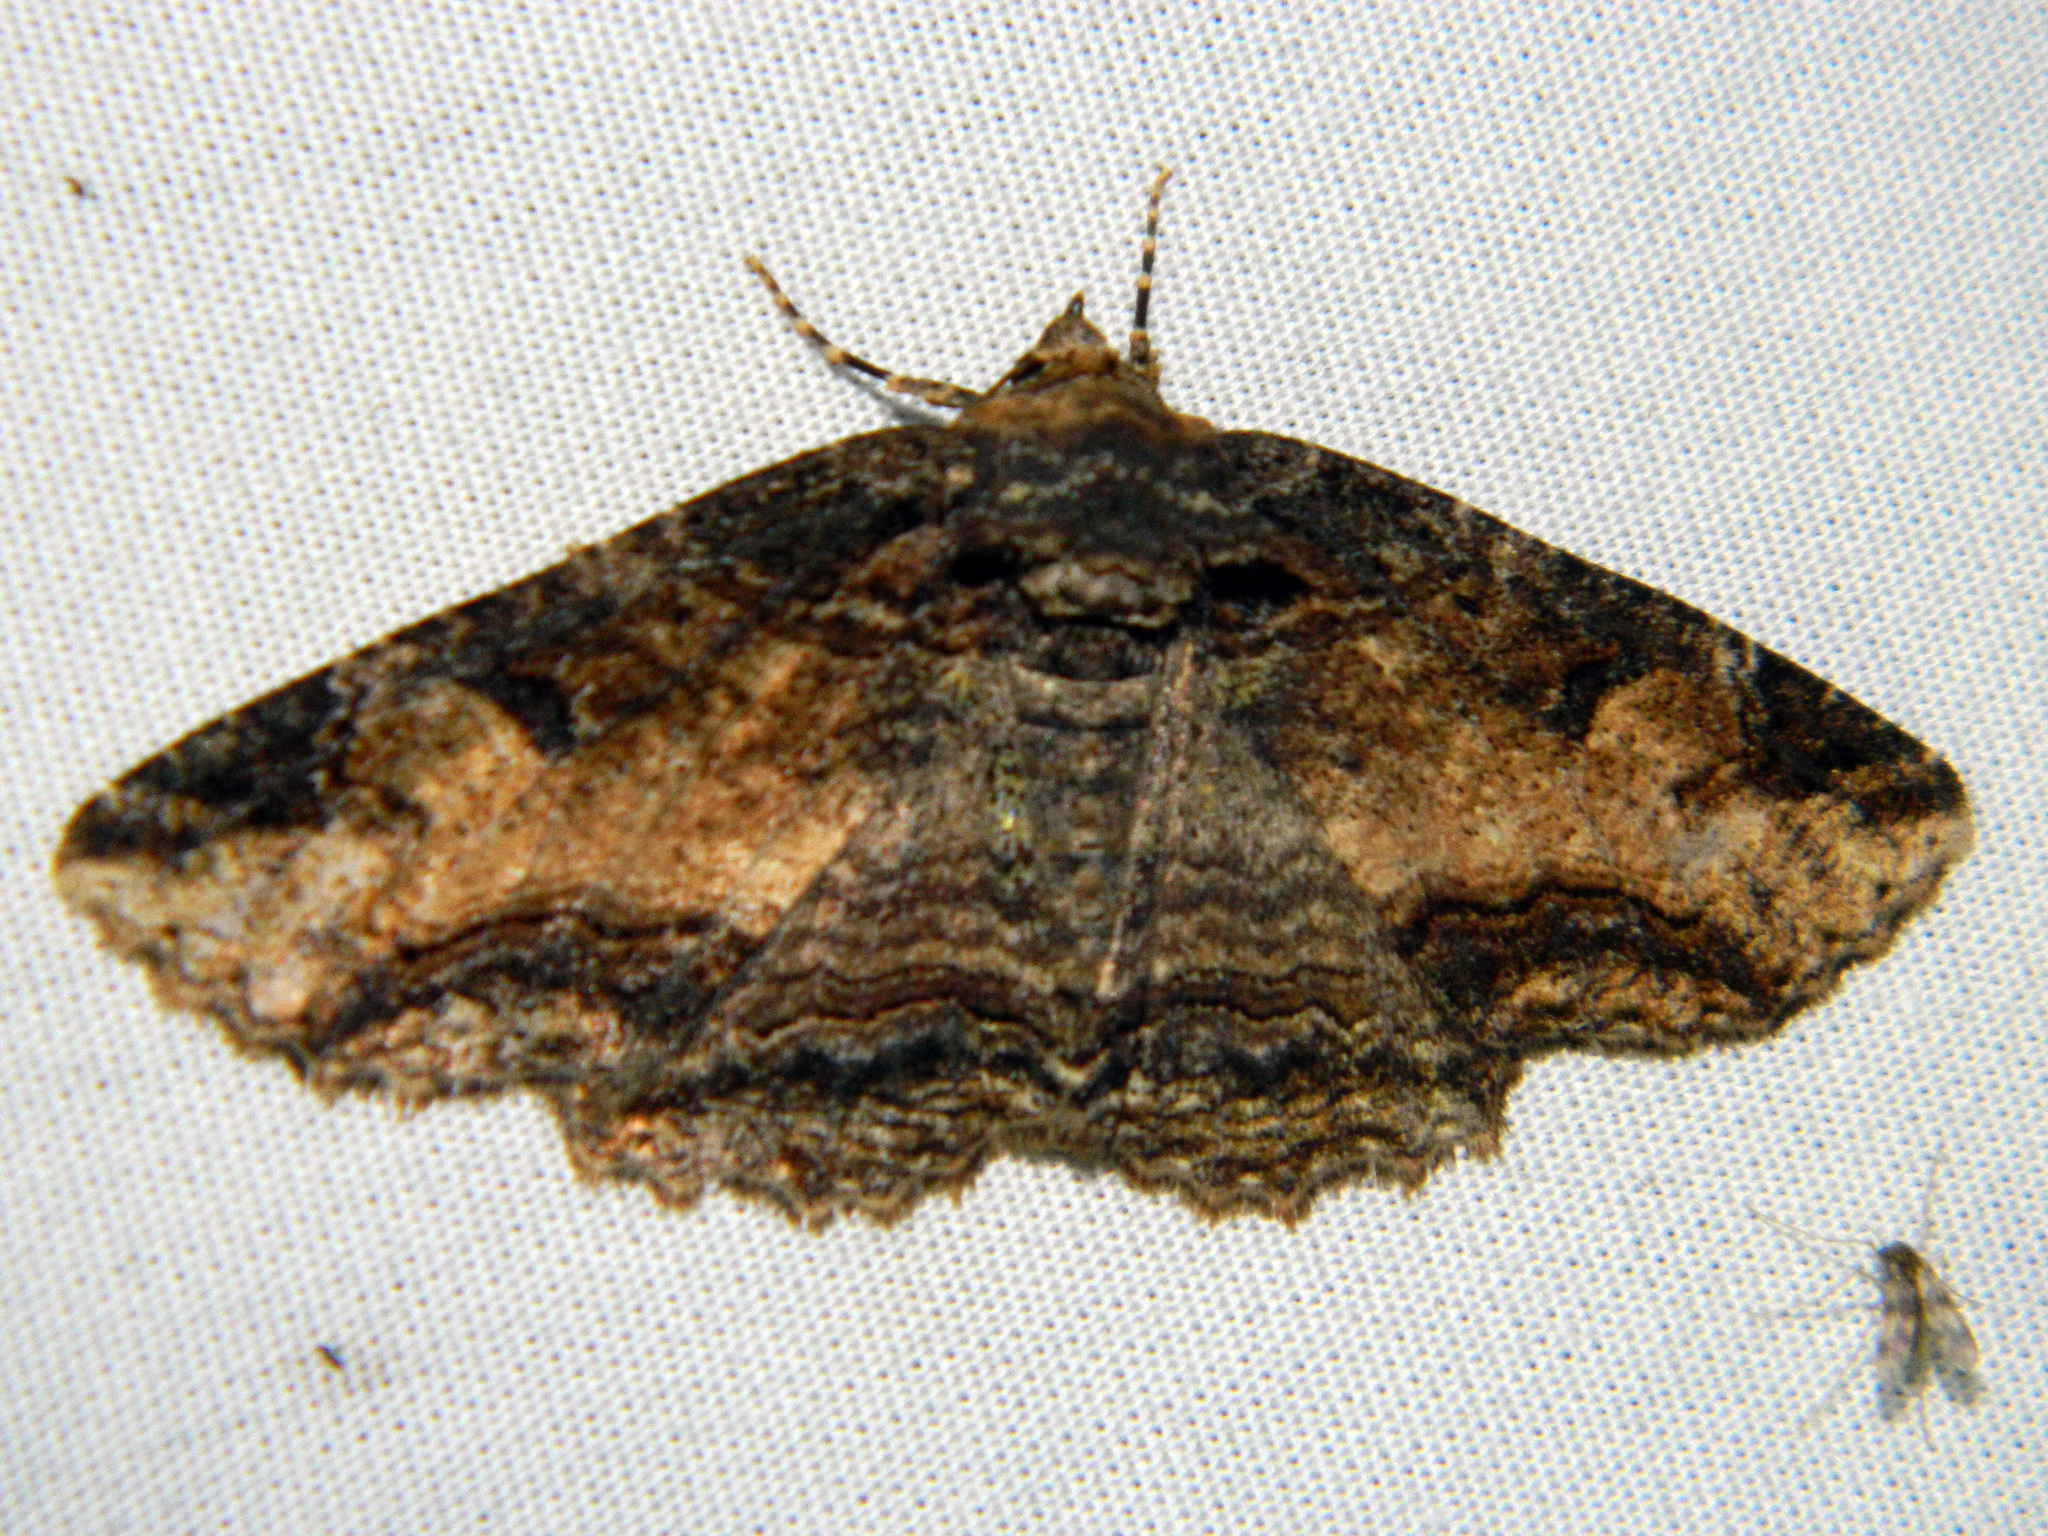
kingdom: Animalia
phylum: Arthropoda
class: Insecta
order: Lepidoptera
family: Erebidae
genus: Zale
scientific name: Zale minerea
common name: Colorful zale moth
